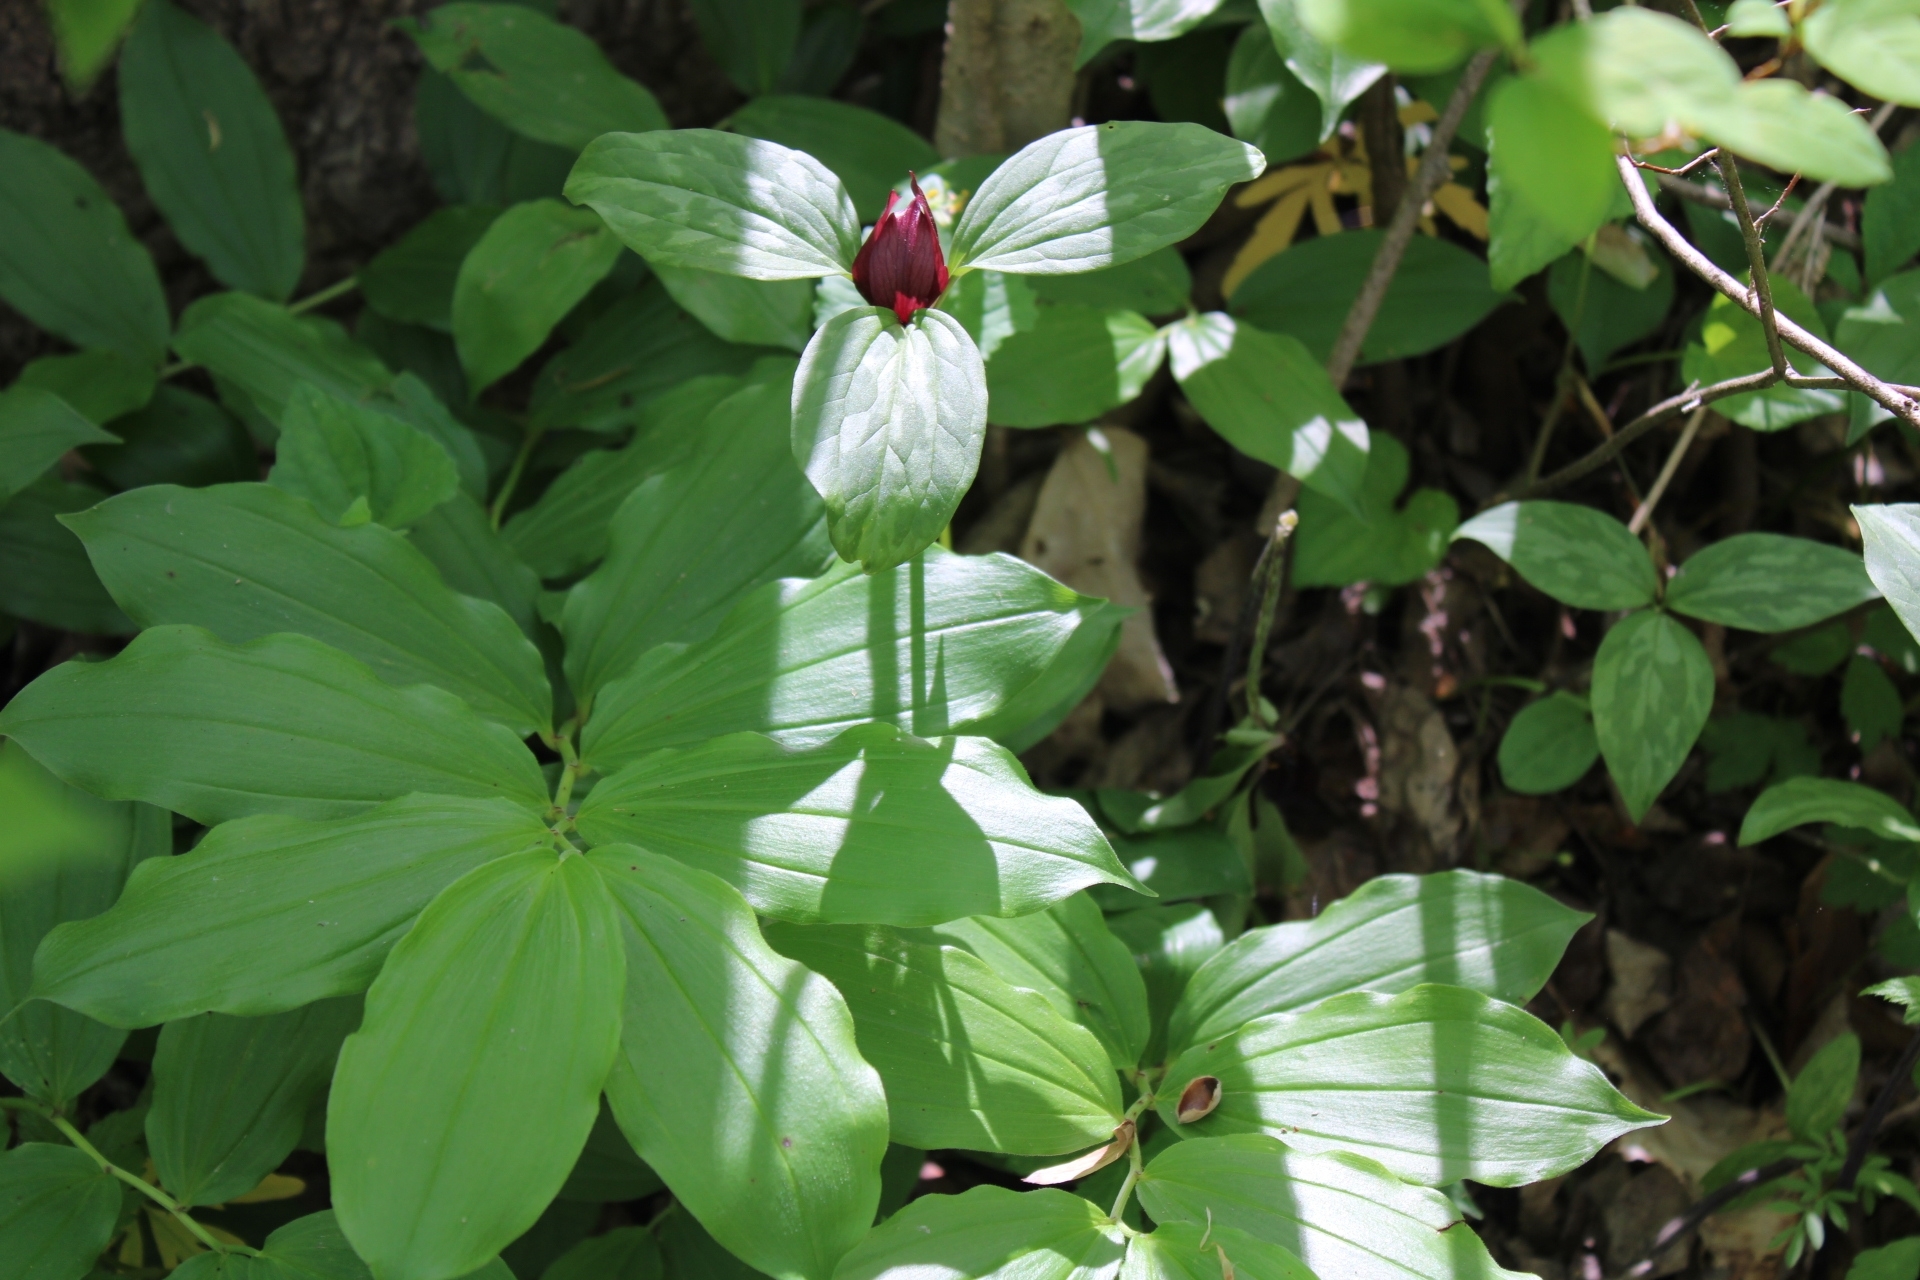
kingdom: Plantae
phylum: Tracheophyta
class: Liliopsida
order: Asparagales
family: Asparagaceae
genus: Maianthemum
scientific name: Maianthemum racemosum
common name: False spikenard
